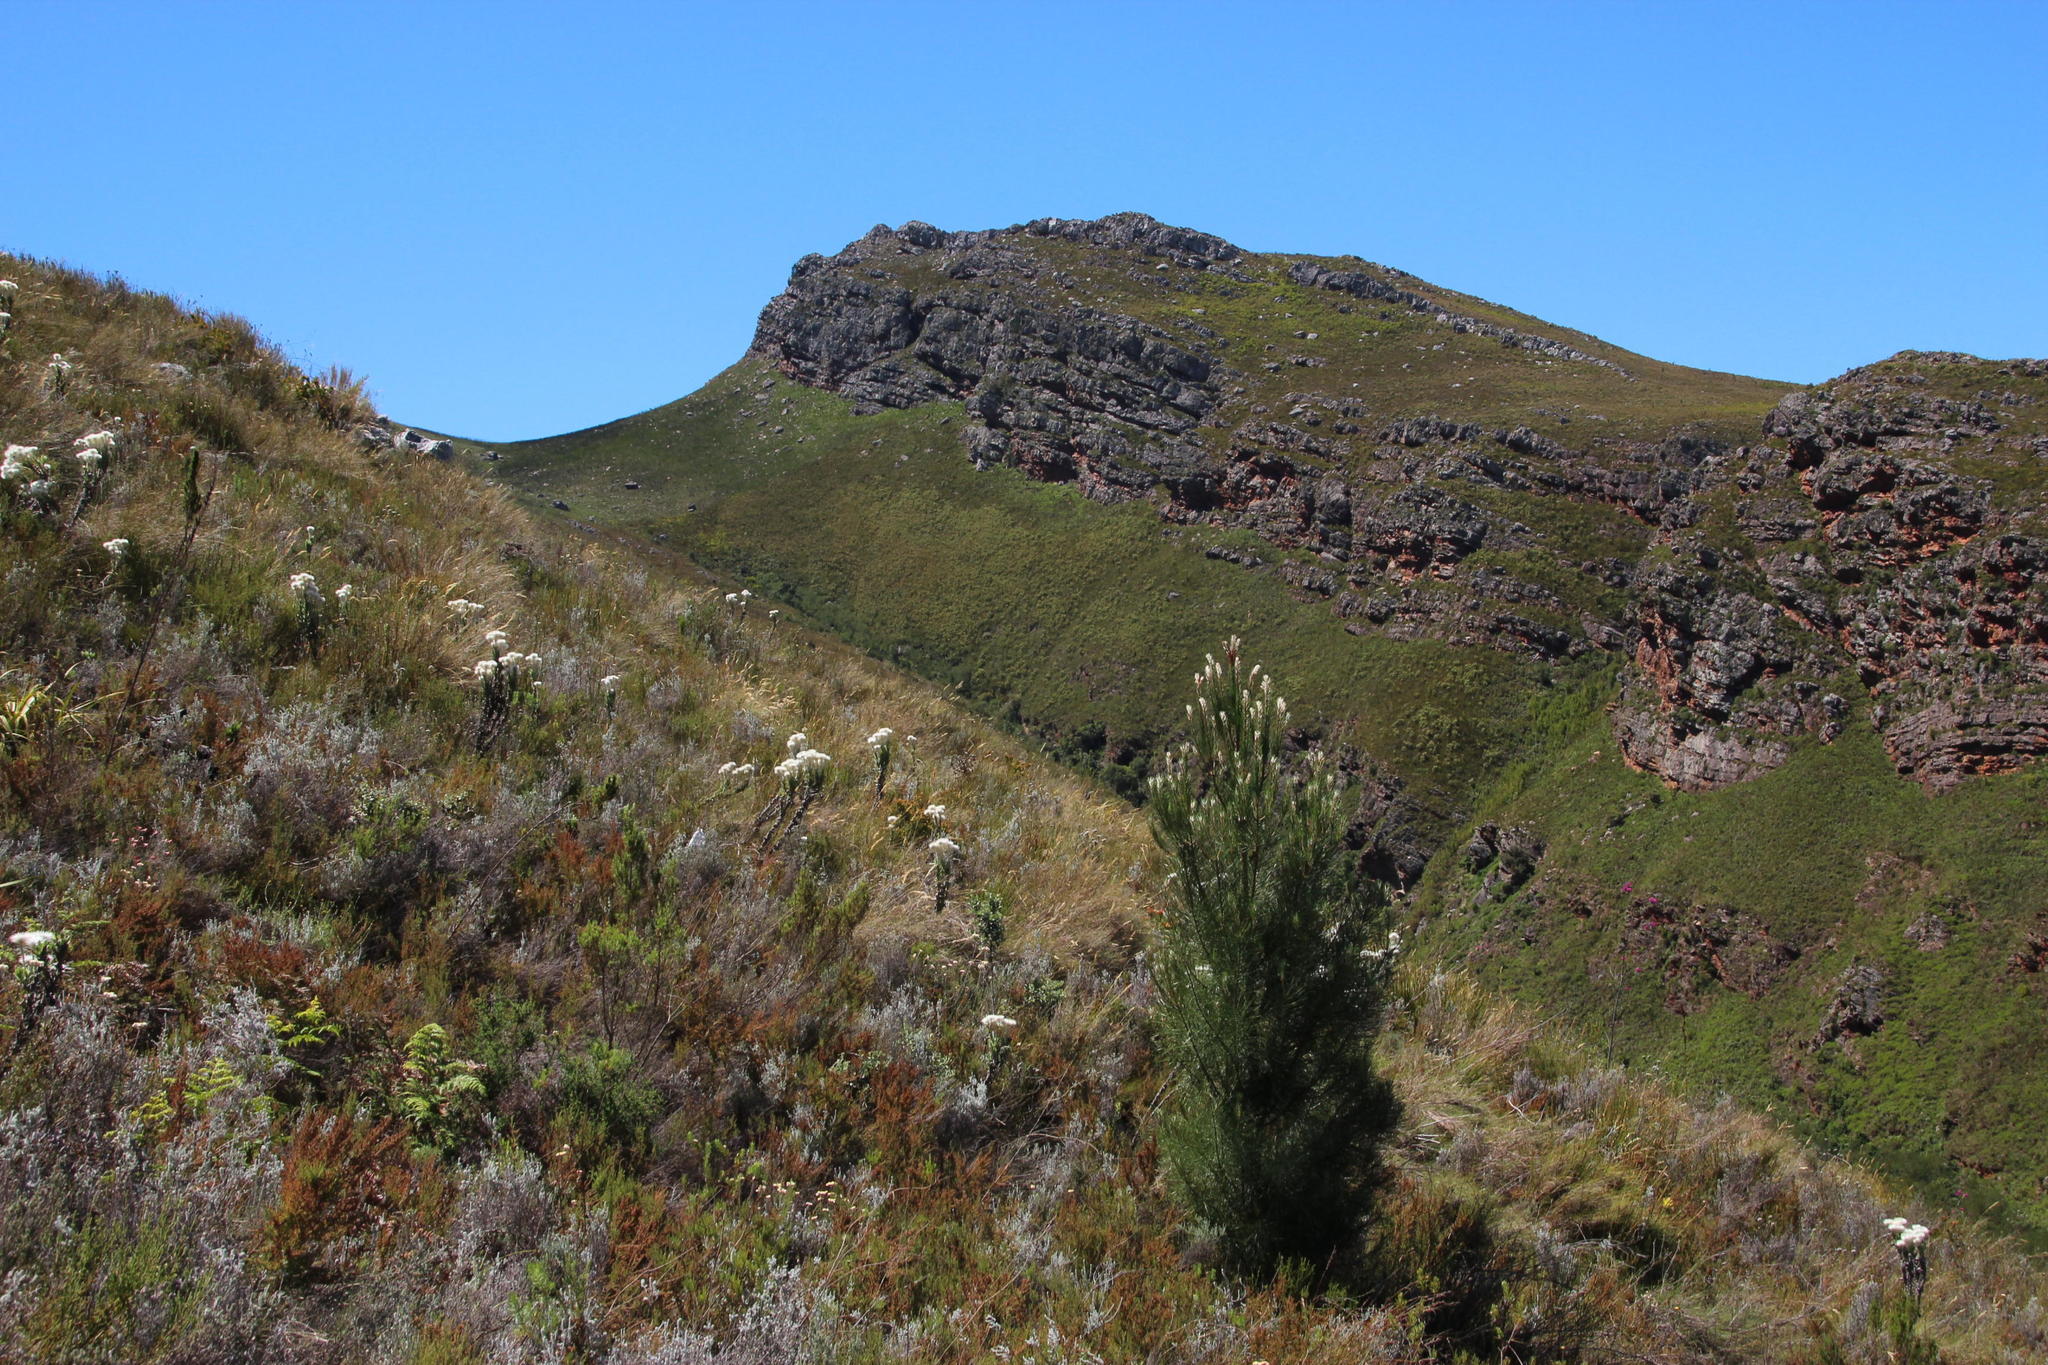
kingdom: Plantae
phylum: Tracheophyta
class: Pinopsida
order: Pinales
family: Pinaceae
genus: Pinus
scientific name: Pinus pinaster
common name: Maritime pine
